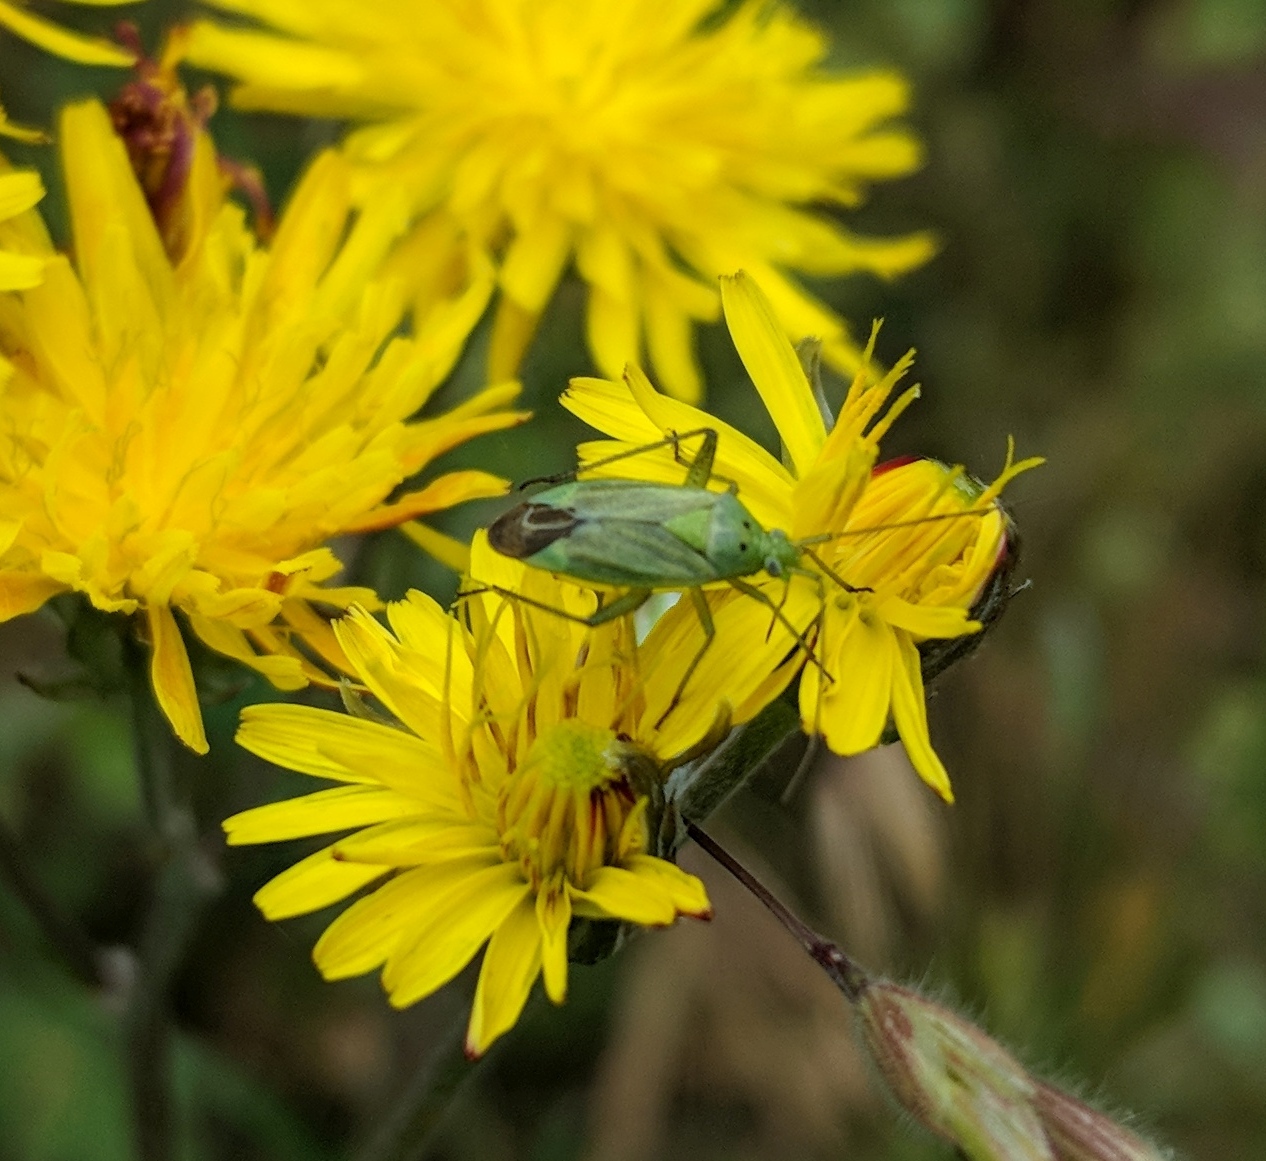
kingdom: Animalia
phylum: Arthropoda
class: Insecta
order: Hemiptera
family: Miridae
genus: Closterotomus
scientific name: Closterotomus norvegicus
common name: Plant bug
